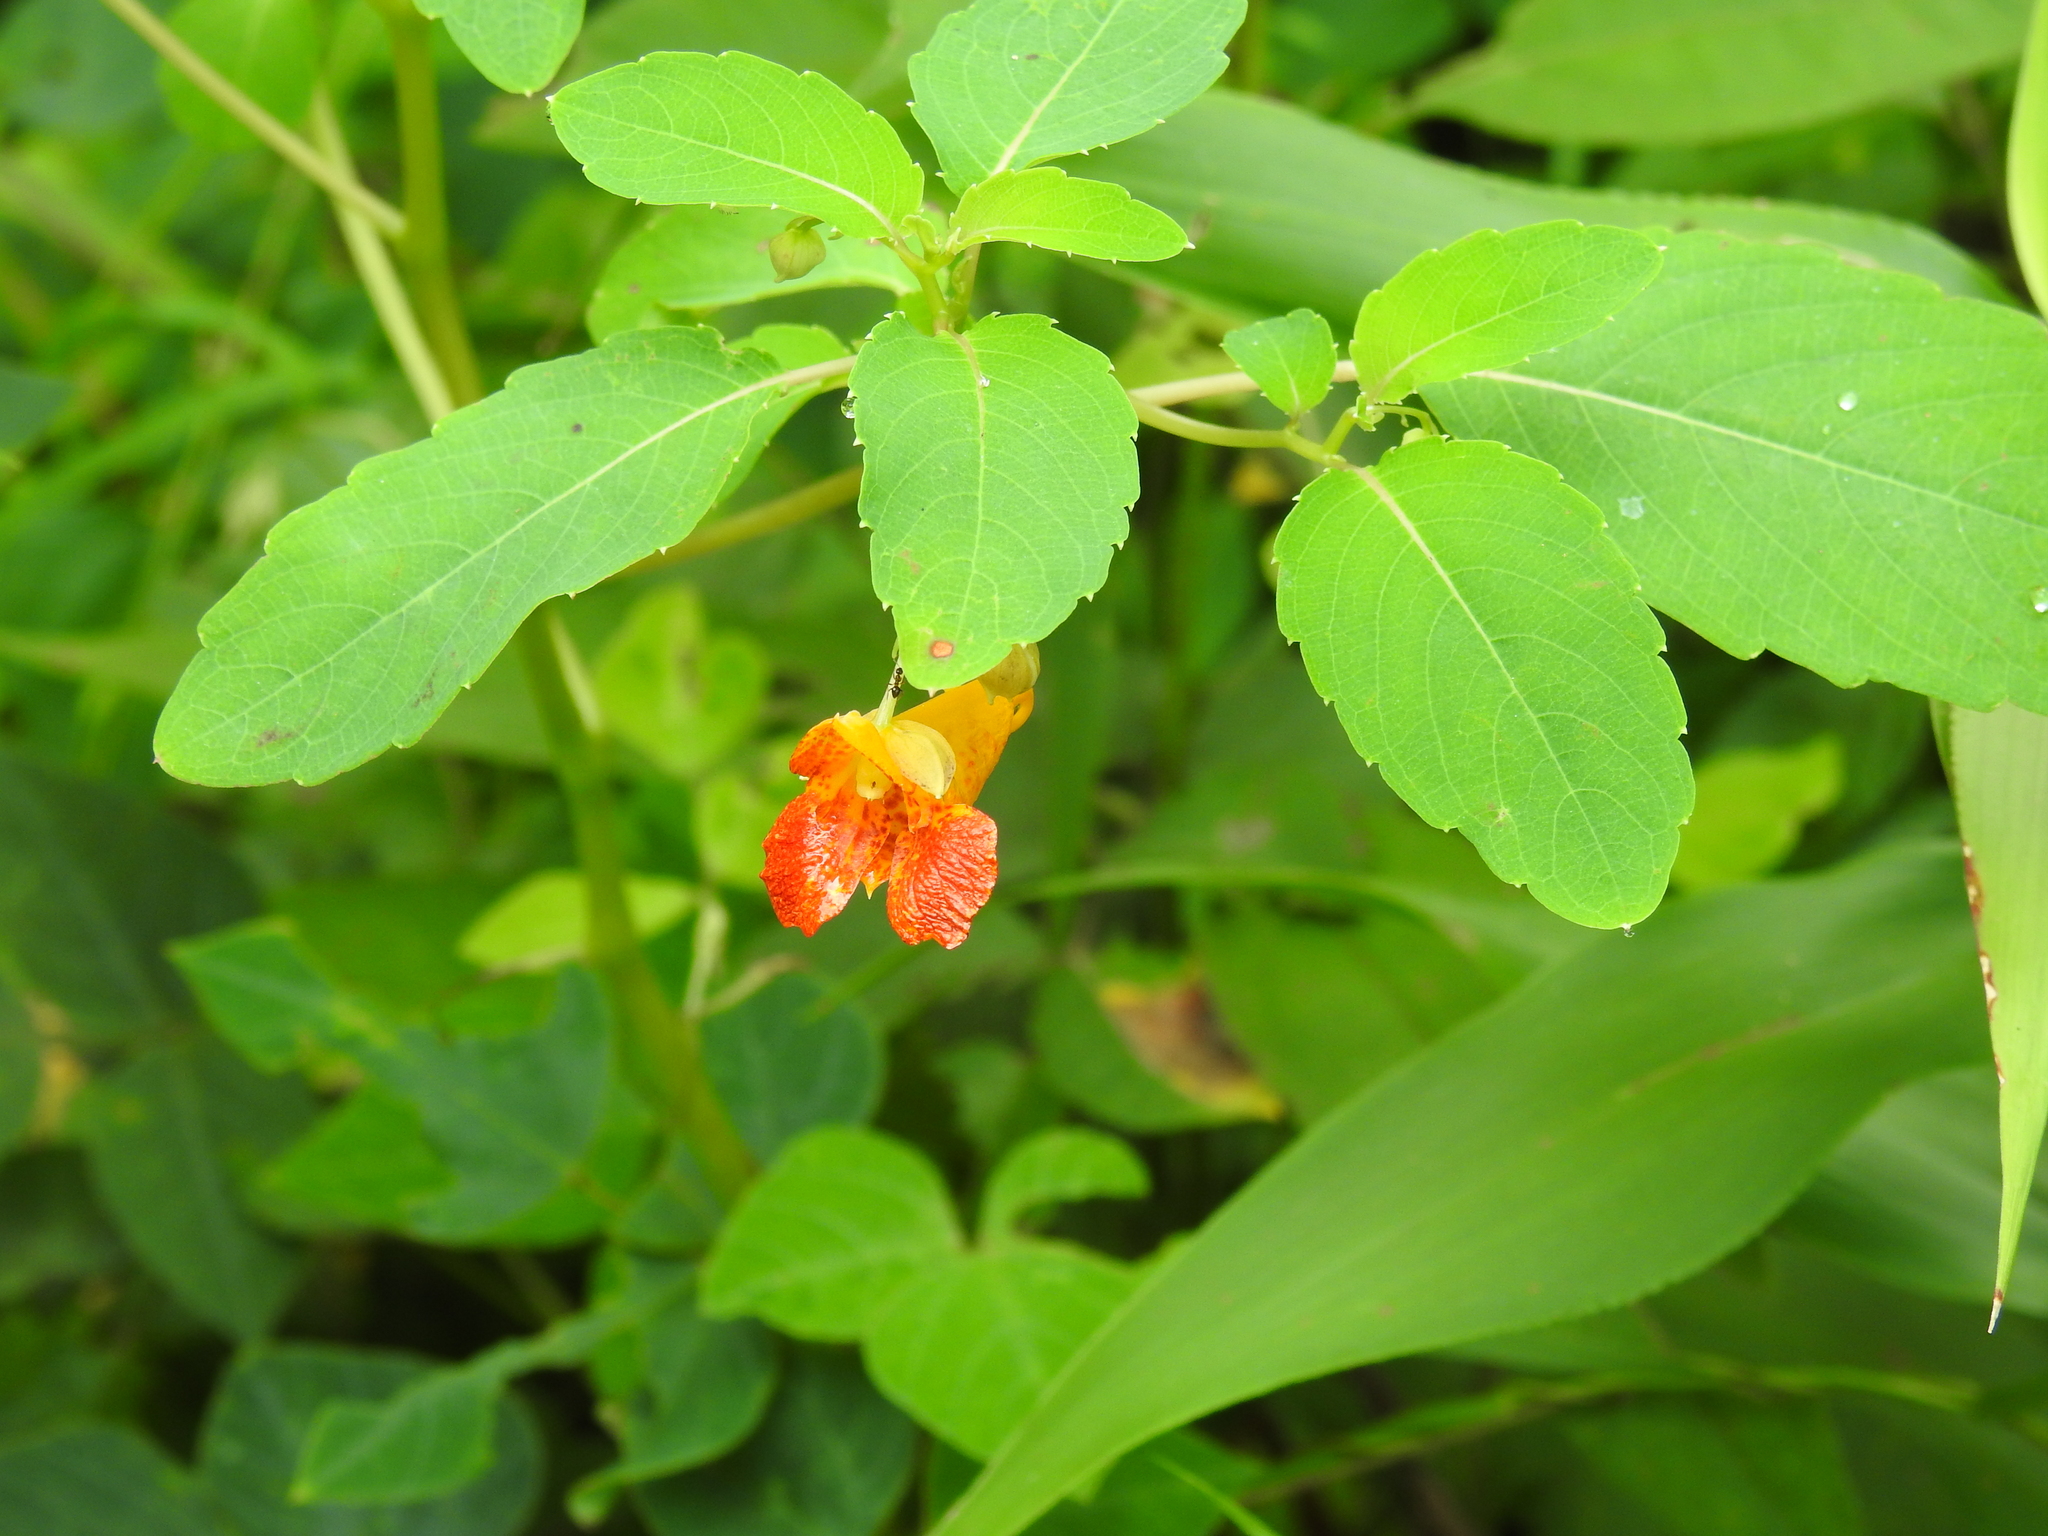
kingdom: Plantae
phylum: Tracheophyta
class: Magnoliopsida
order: Ericales
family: Balsaminaceae
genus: Impatiens
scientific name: Impatiens capensis
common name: Orange balsam
